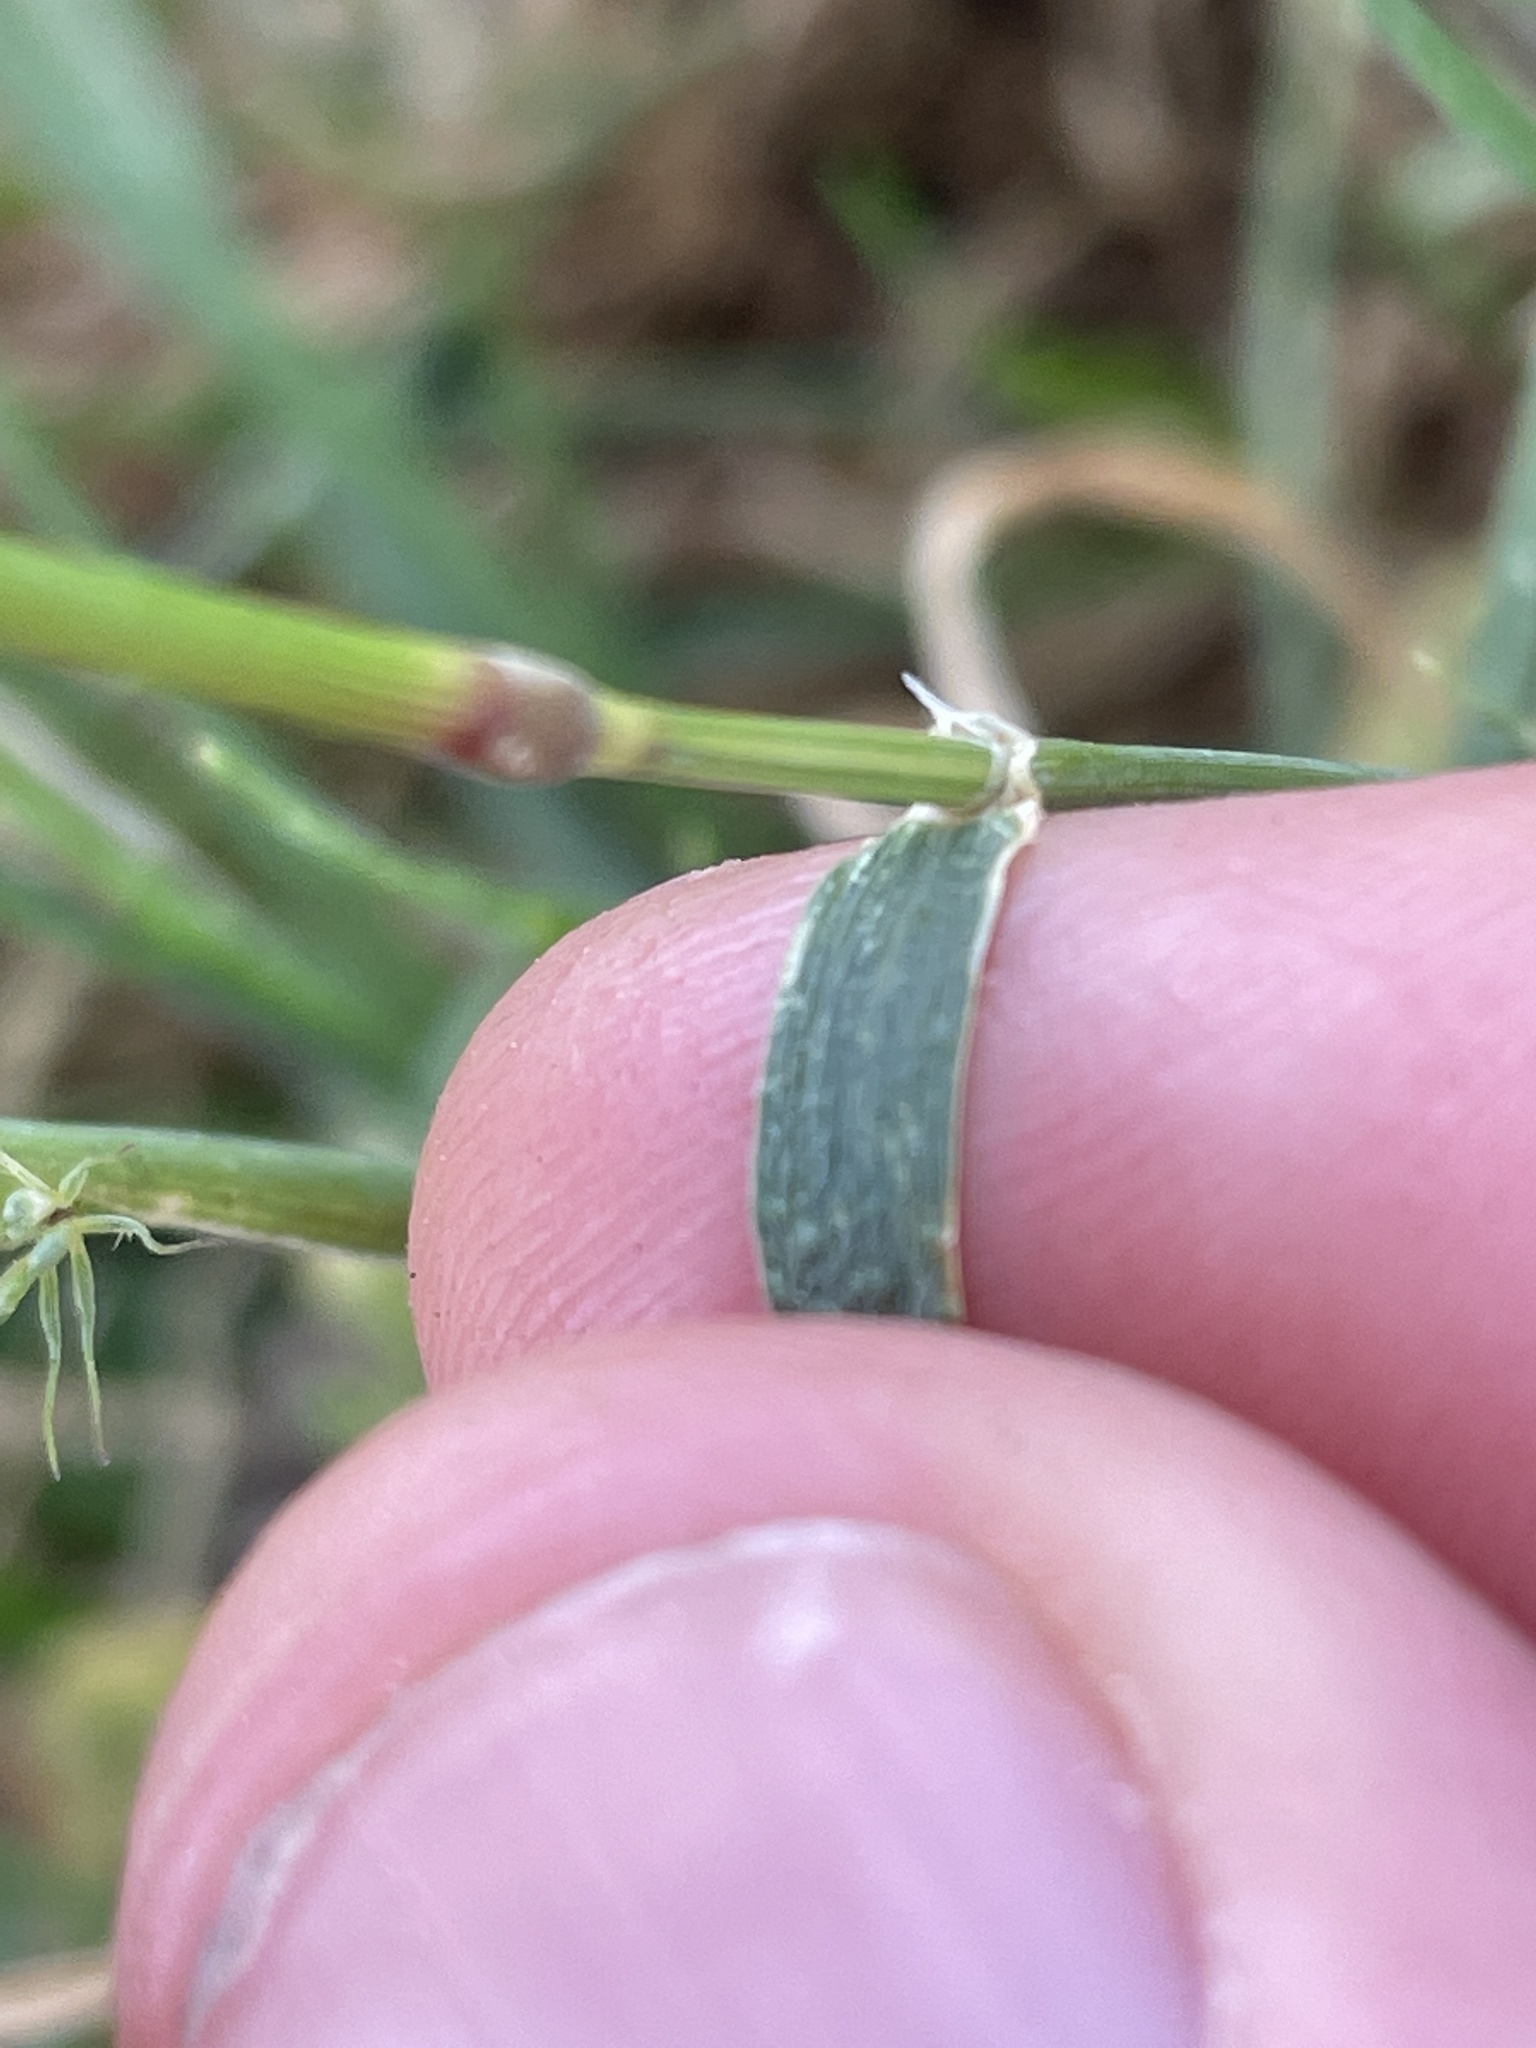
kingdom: Plantae
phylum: Tracheophyta
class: Liliopsida
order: Poales
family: Poaceae
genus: Hordeum
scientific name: Hordeum murinum
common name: Wall barley
